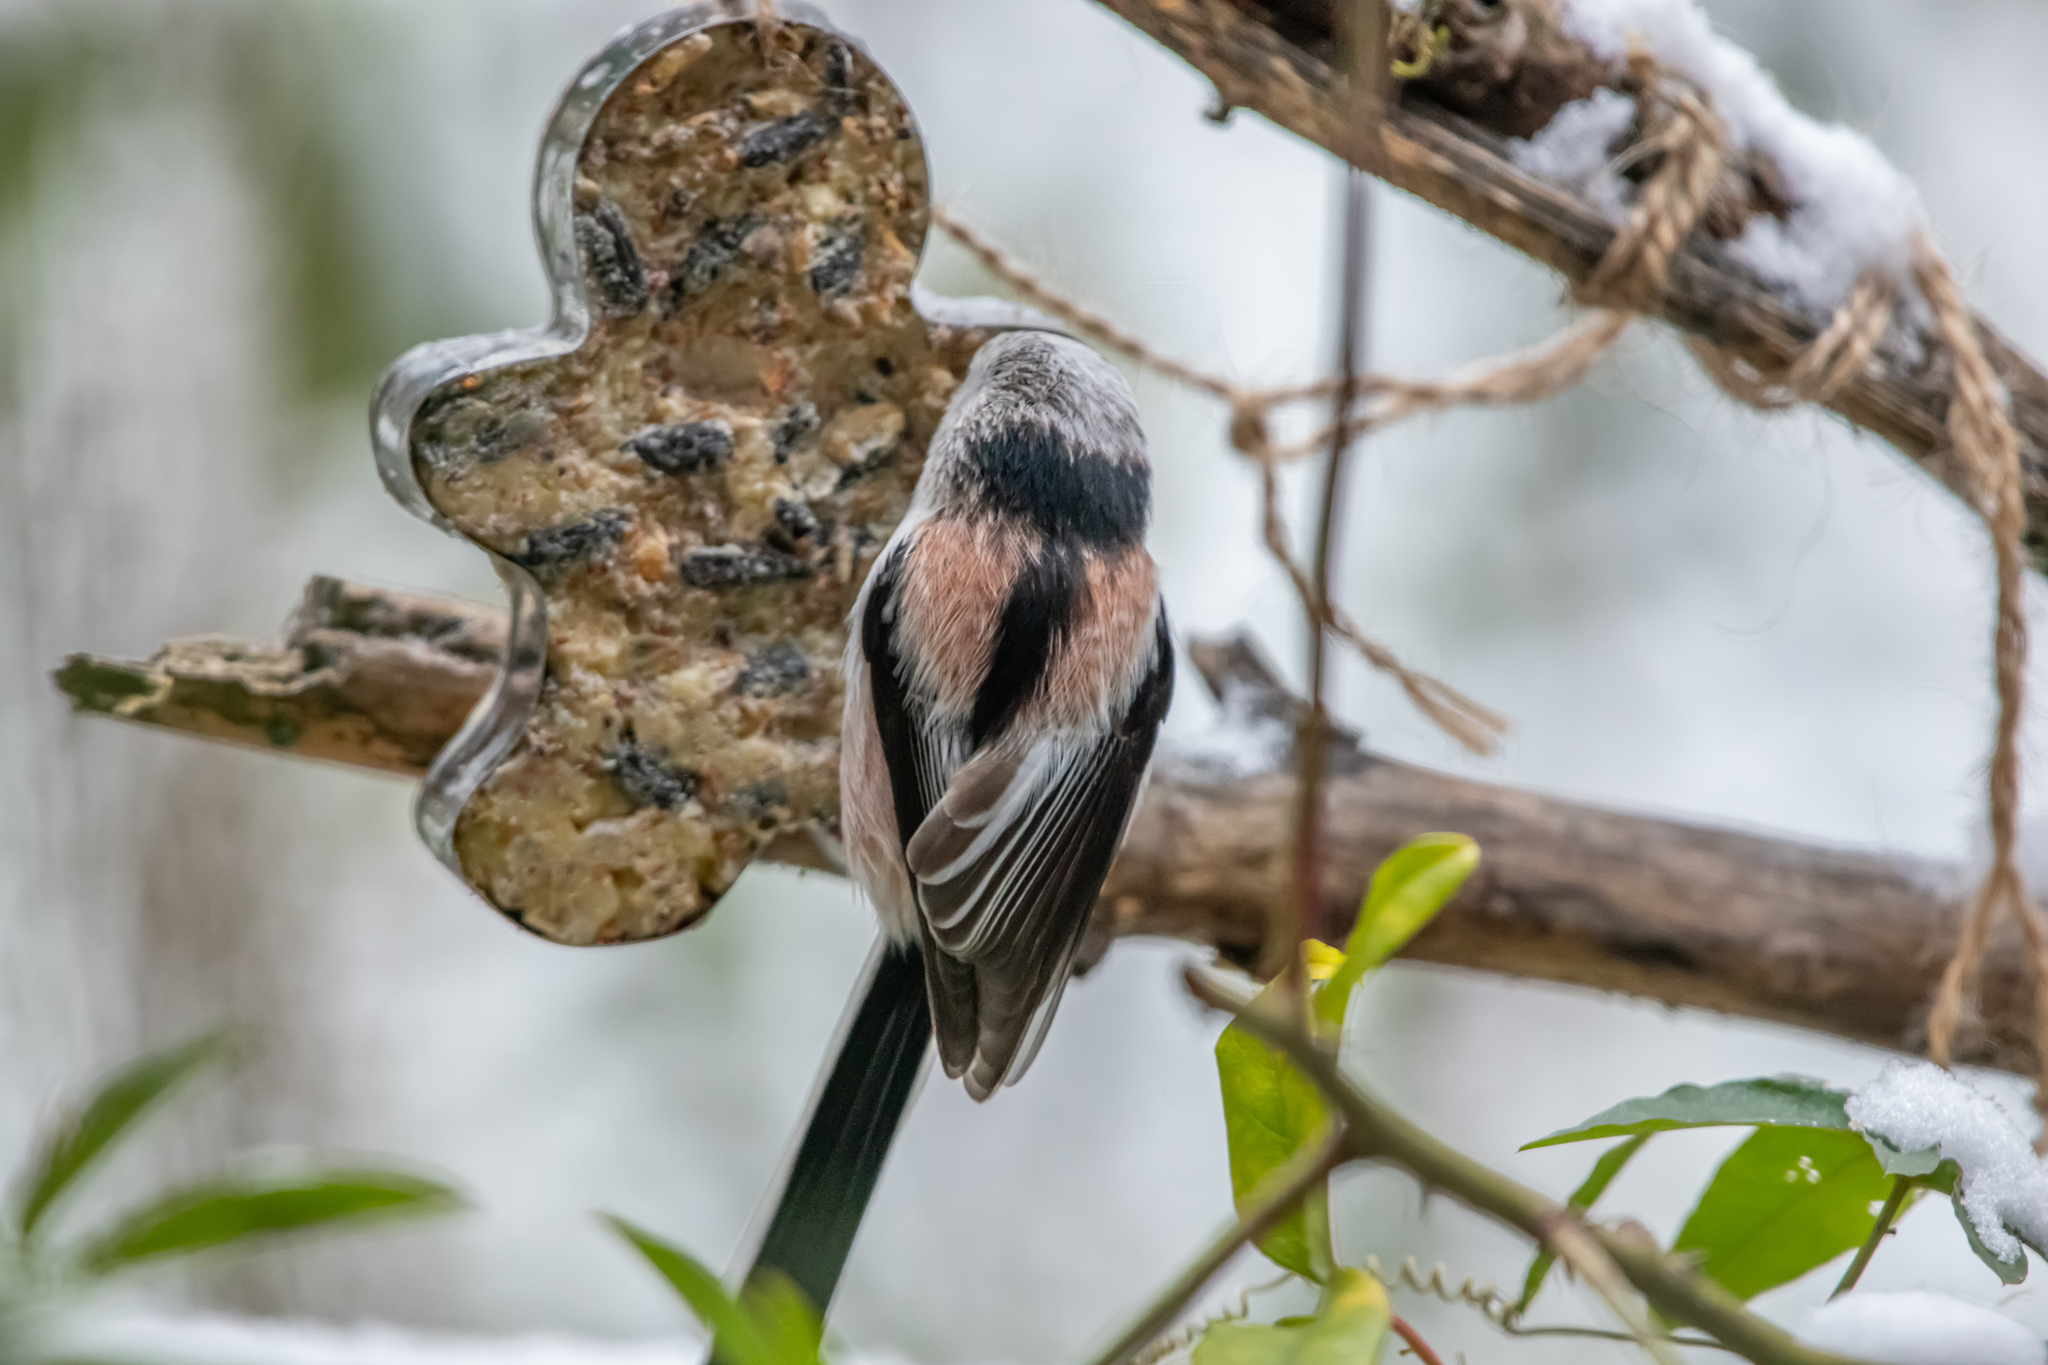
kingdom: Animalia
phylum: Chordata
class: Aves
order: Passeriformes
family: Aegithalidae
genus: Aegithalos
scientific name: Aegithalos caudatus
